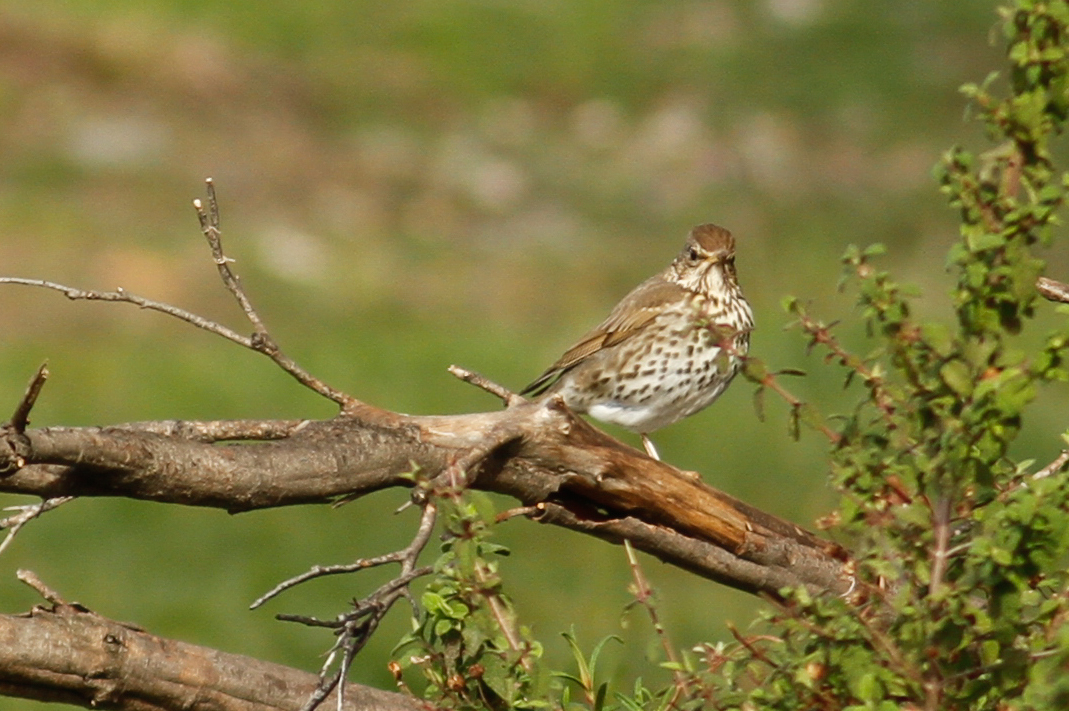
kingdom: Animalia
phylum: Chordata
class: Aves
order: Passeriformes
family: Turdidae
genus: Turdus
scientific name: Turdus philomelos
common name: Song thrush
